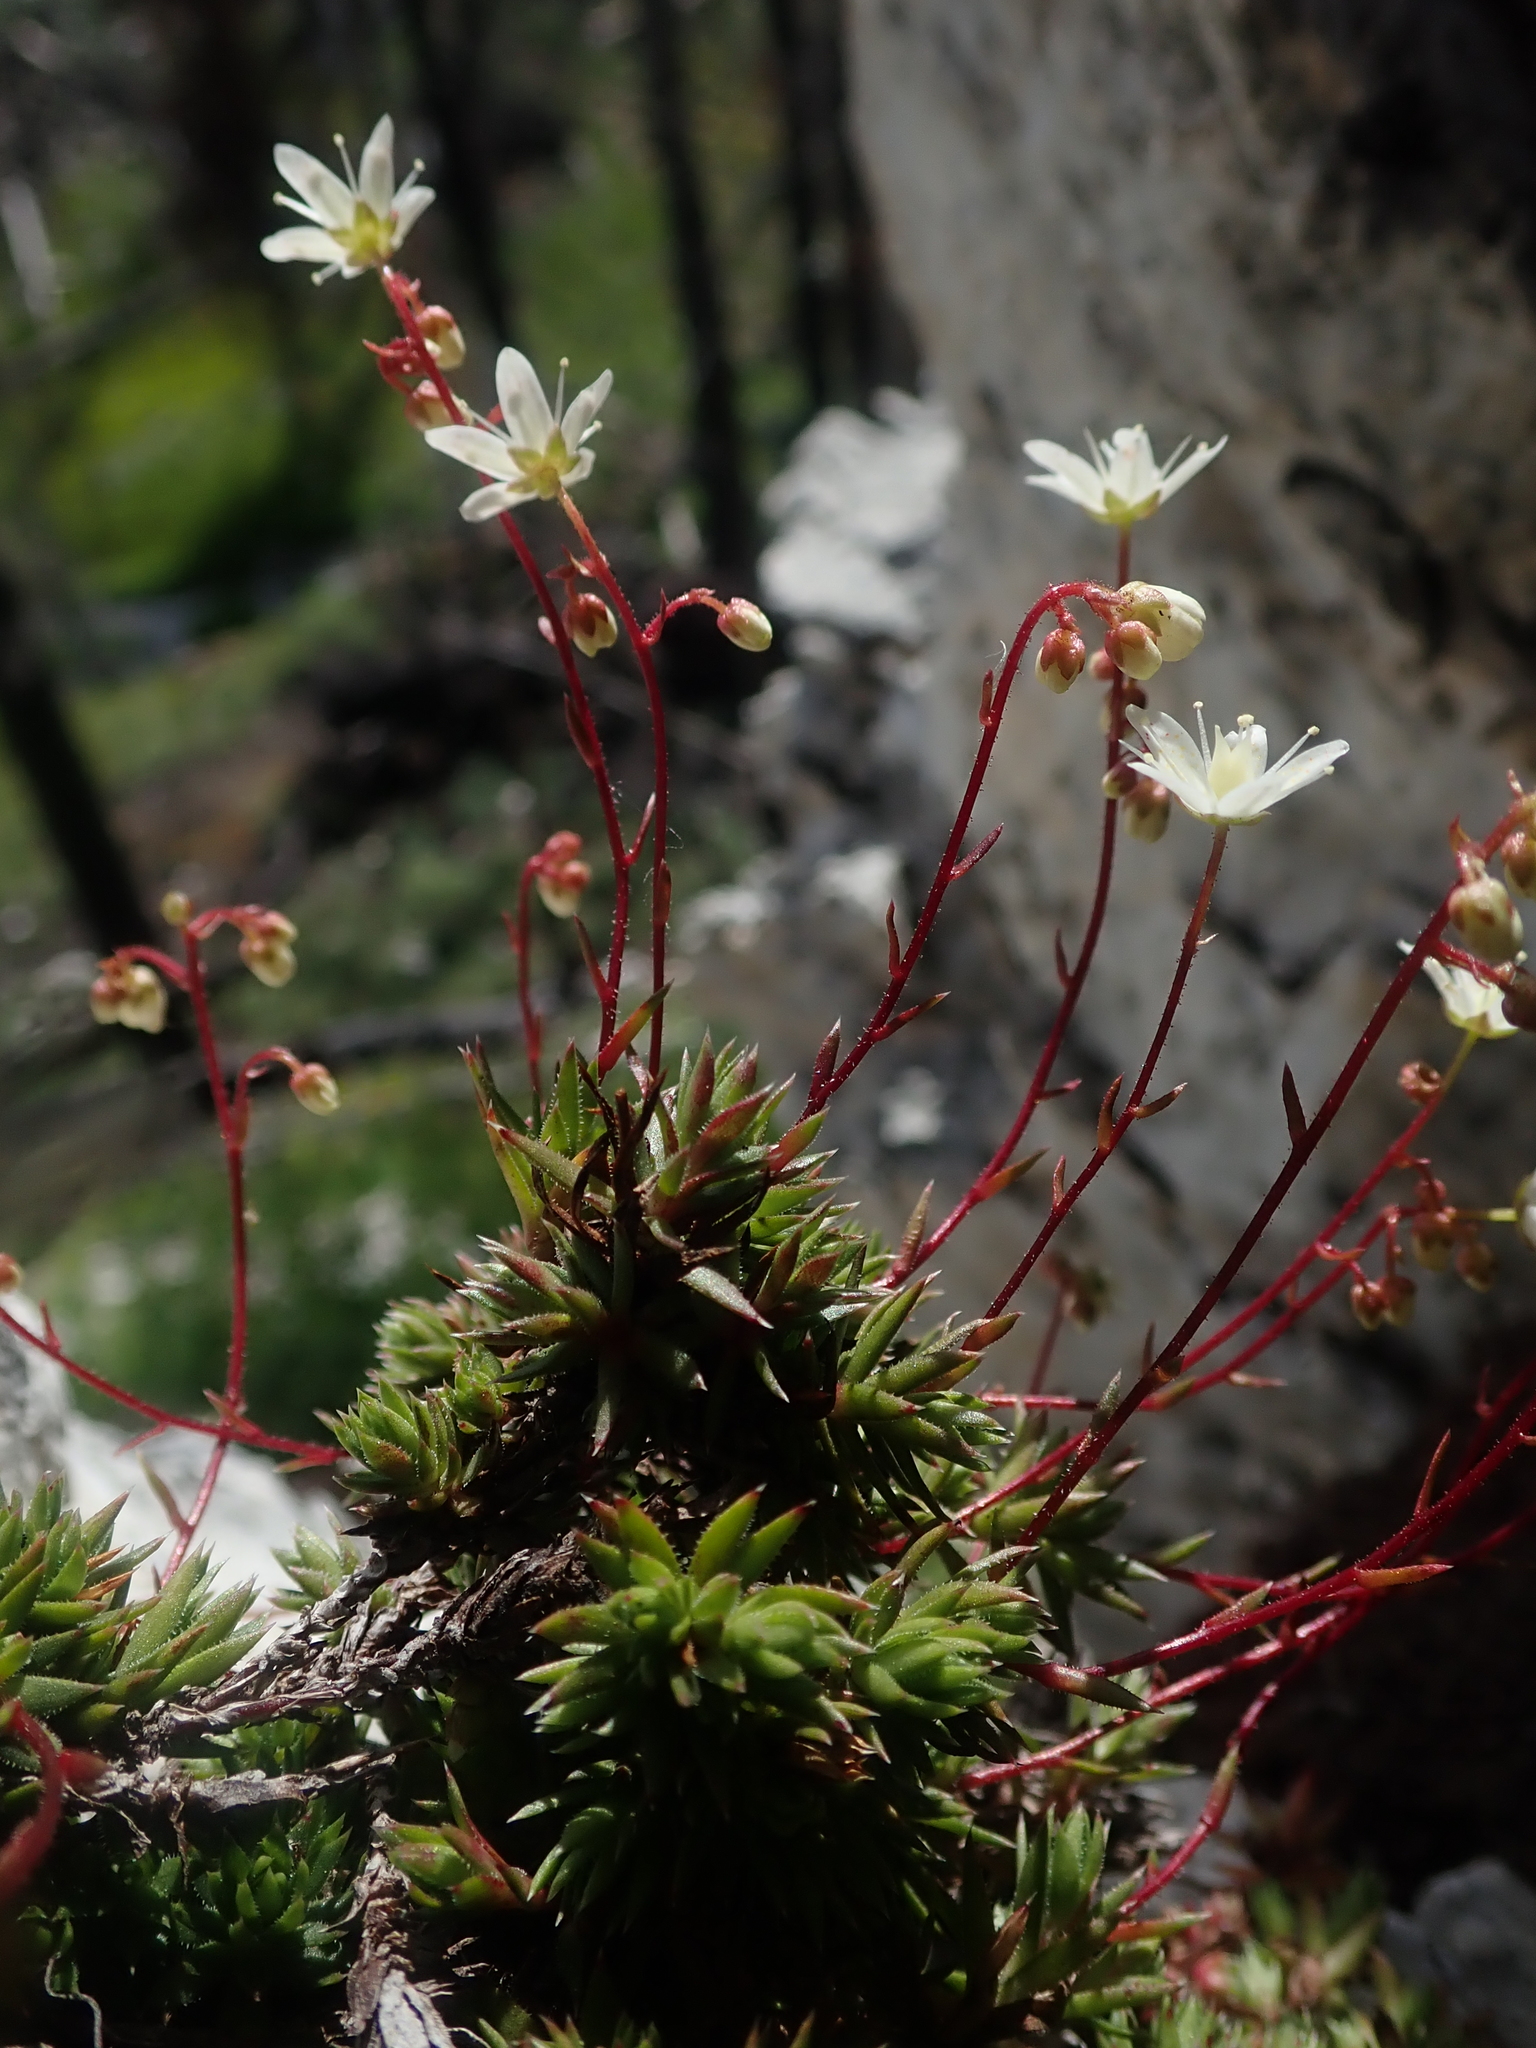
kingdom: Plantae
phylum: Tracheophyta
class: Magnoliopsida
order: Saxifragales
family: Saxifragaceae
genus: Saxifraga
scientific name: Saxifraga bronchialis
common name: Matted saxifrage
